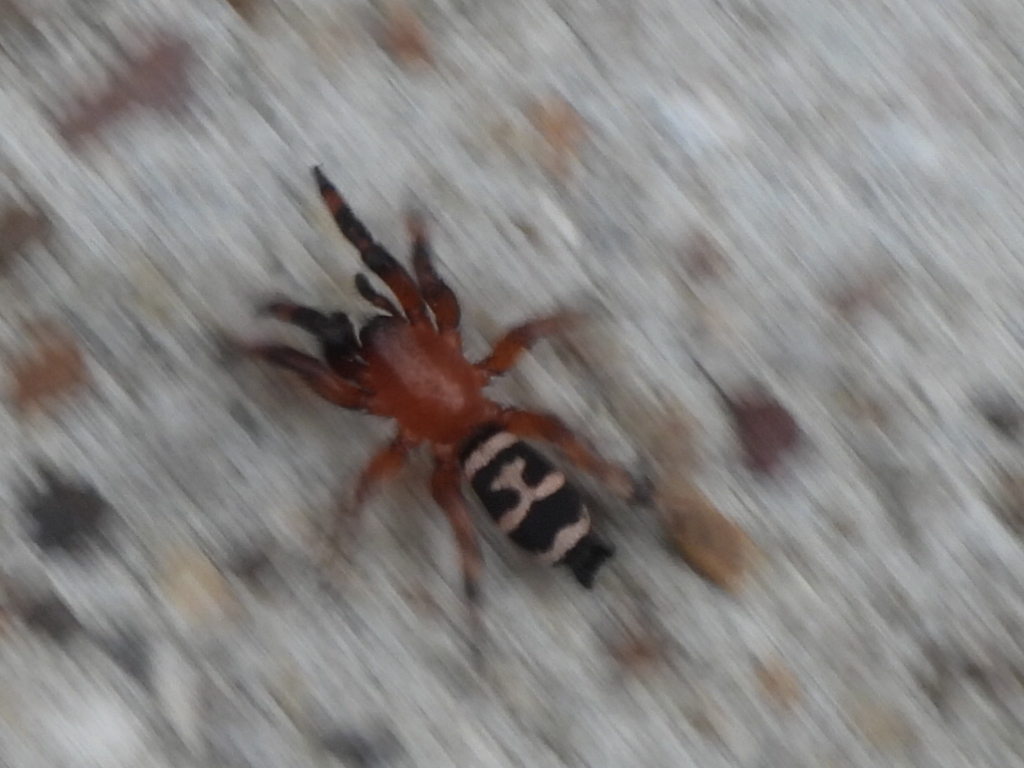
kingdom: Animalia
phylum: Arthropoda
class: Arachnida
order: Araneae
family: Gnaphosidae
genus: Sergiolus
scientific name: Sergiolus capulatus
